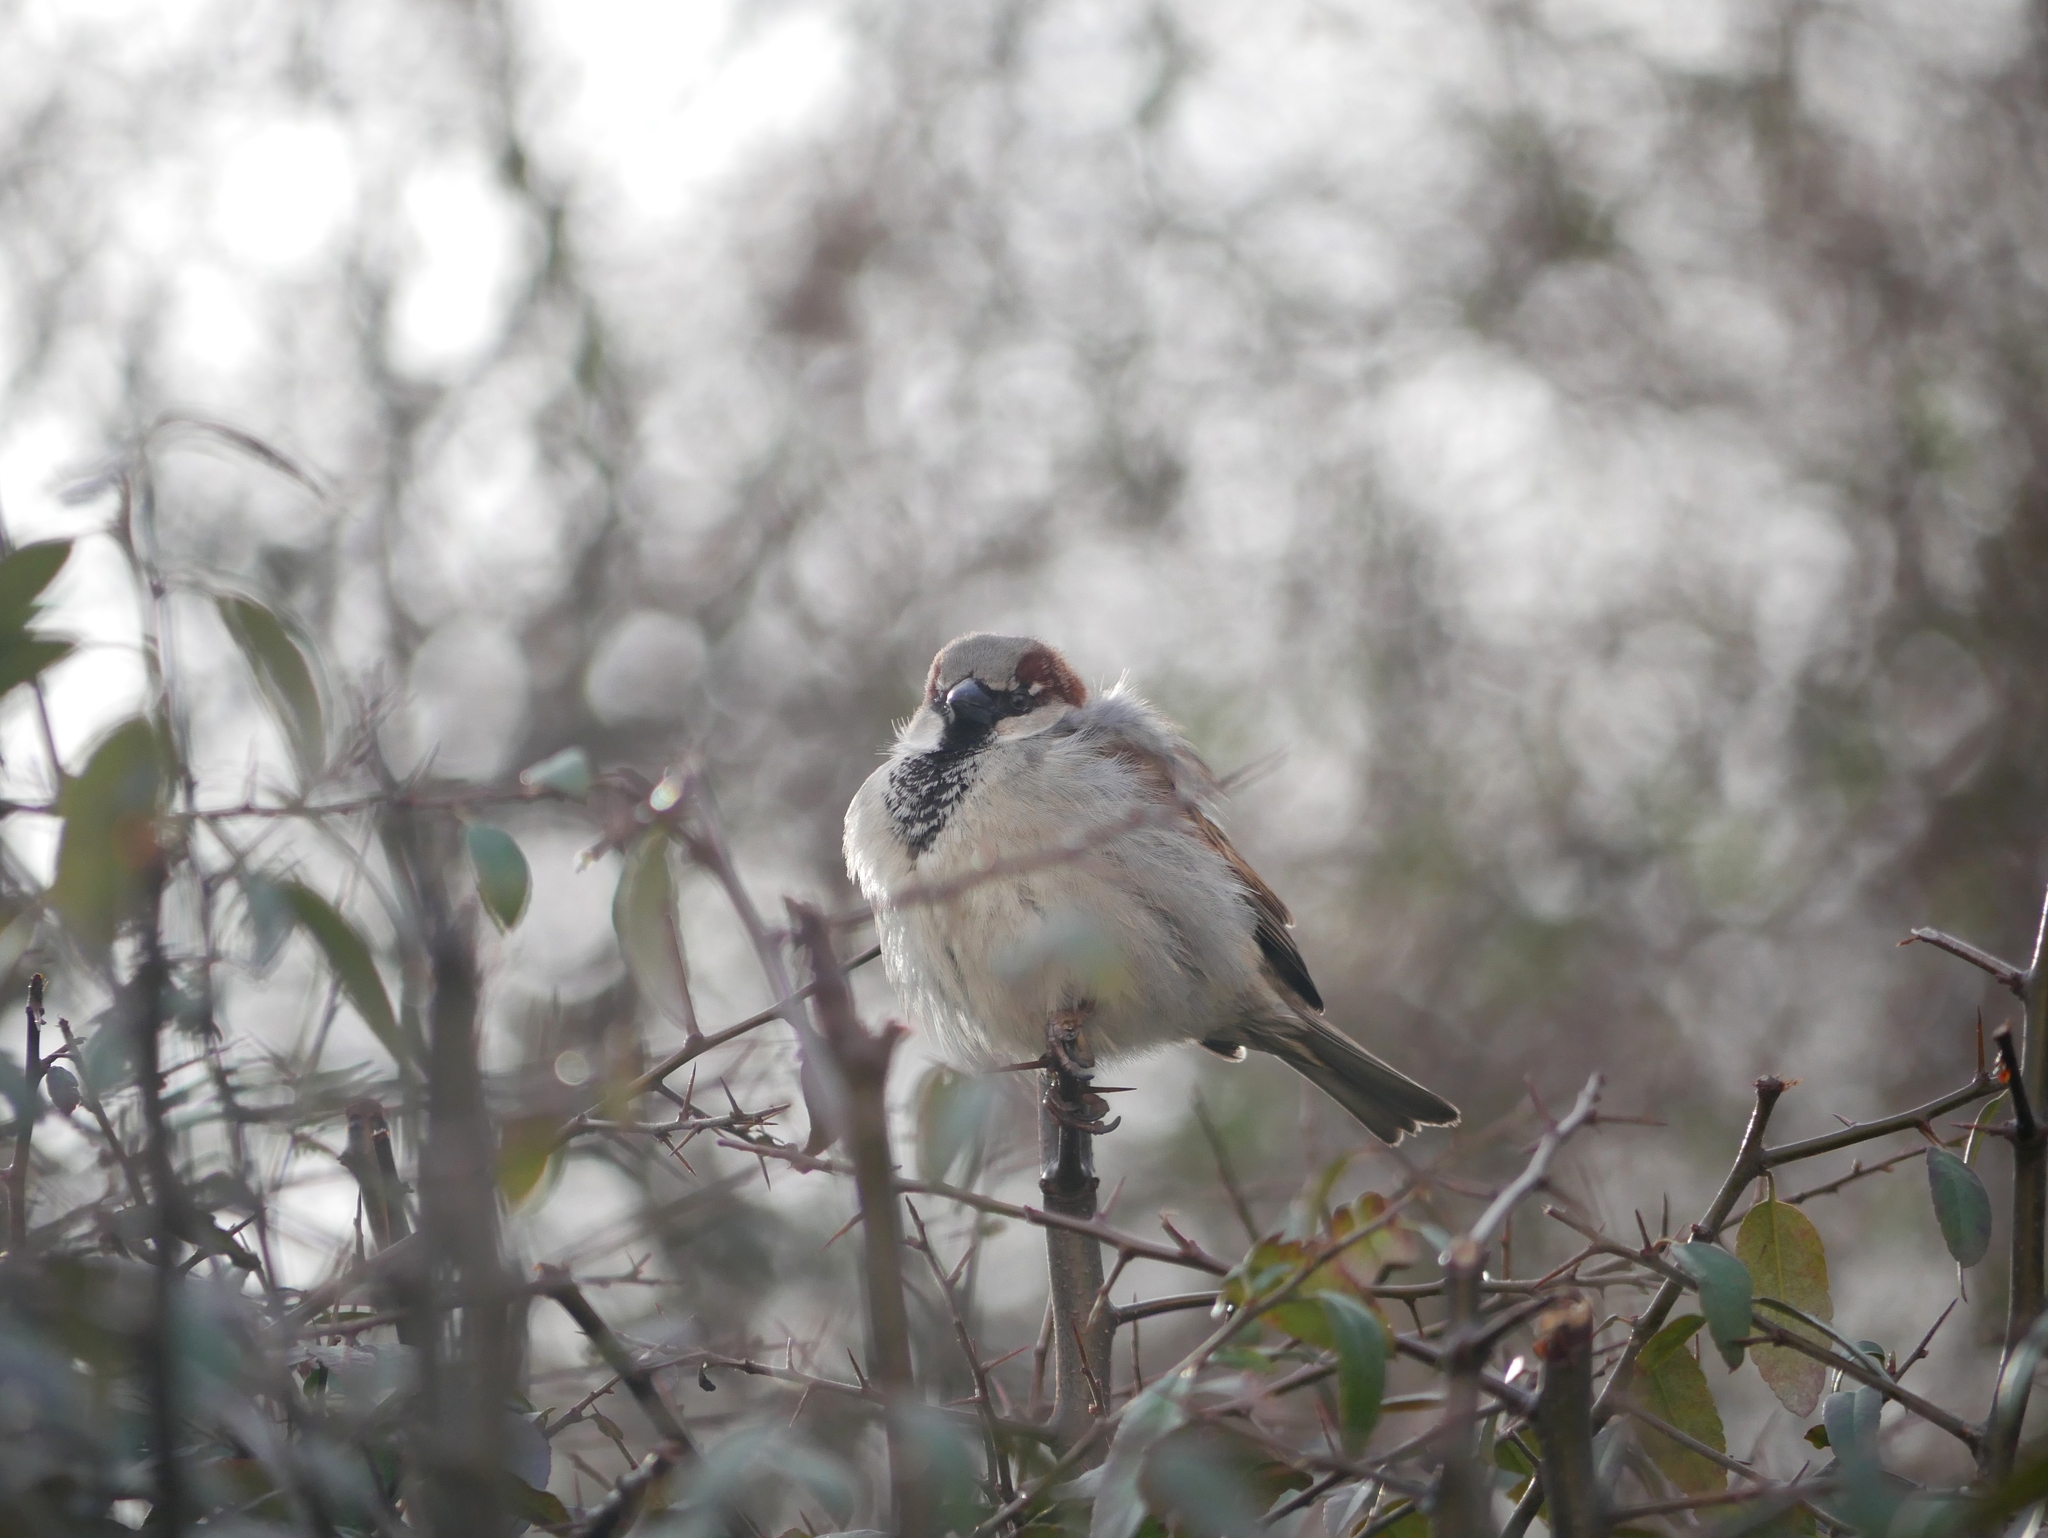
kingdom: Animalia
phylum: Chordata
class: Aves
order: Passeriformes
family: Passeridae
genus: Passer
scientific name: Passer domesticus
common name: House sparrow
